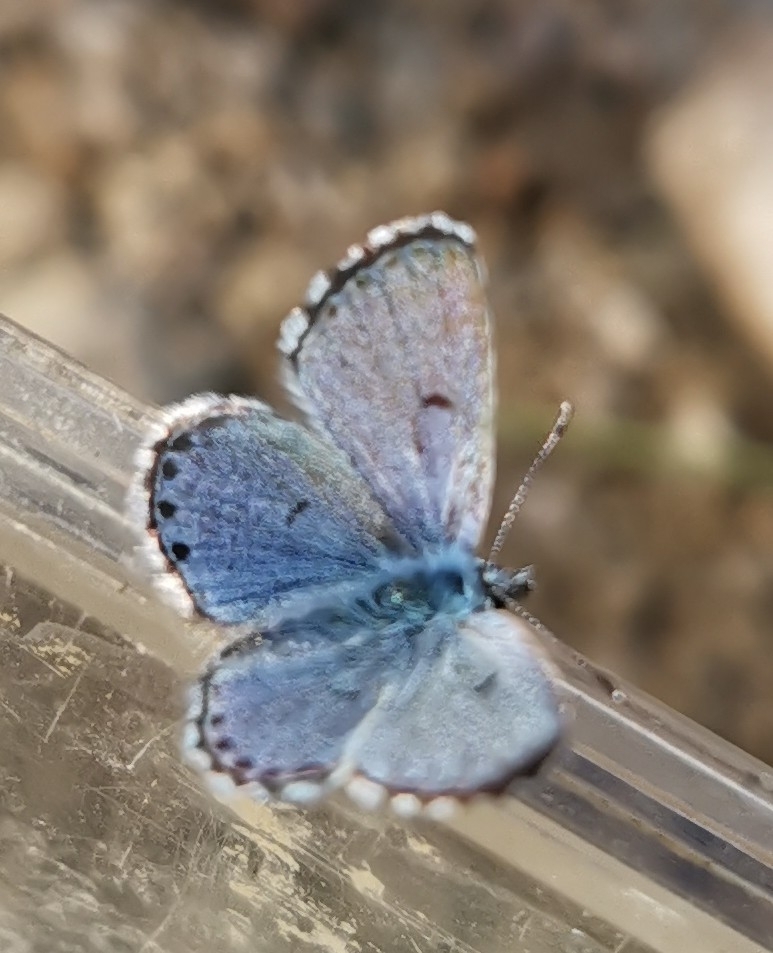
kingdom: Animalia
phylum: Arthropoda
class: Insecta
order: Lepidoptera
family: Lycaenidae
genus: Pseudophilotes
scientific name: Pseudophilotes baton
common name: Baton blue
